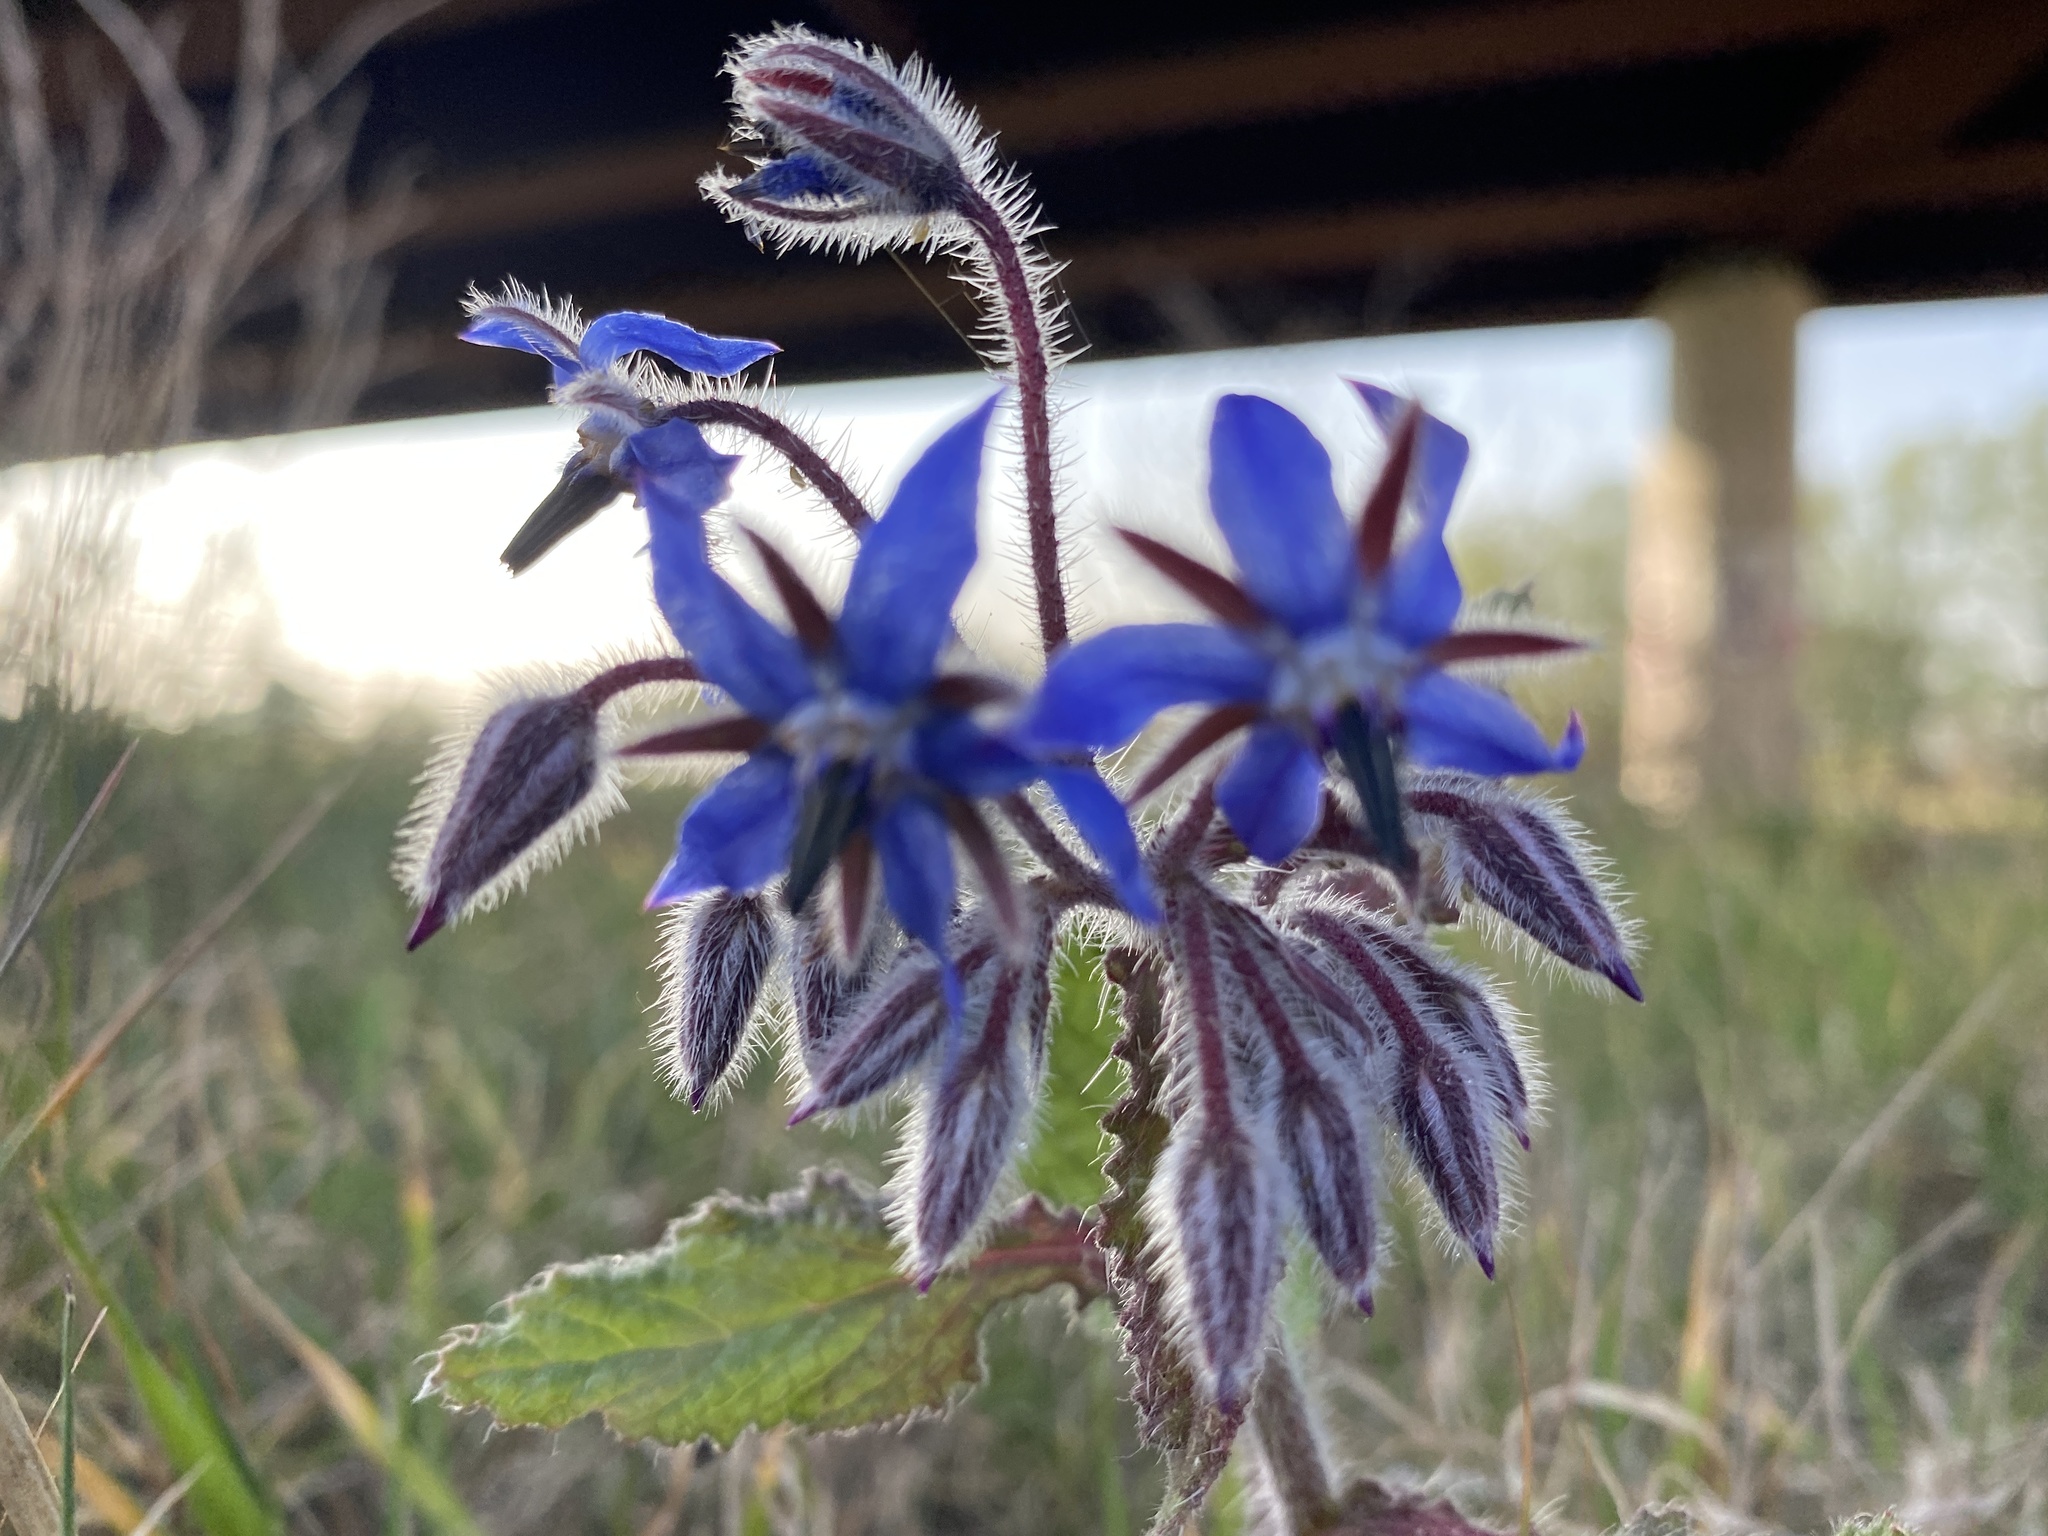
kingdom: Plantae
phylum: Tracheophyta
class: Magnoliopsida
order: Boraginales
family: Boraginaceae
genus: Borago
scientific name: Borago officinalis
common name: Borage
